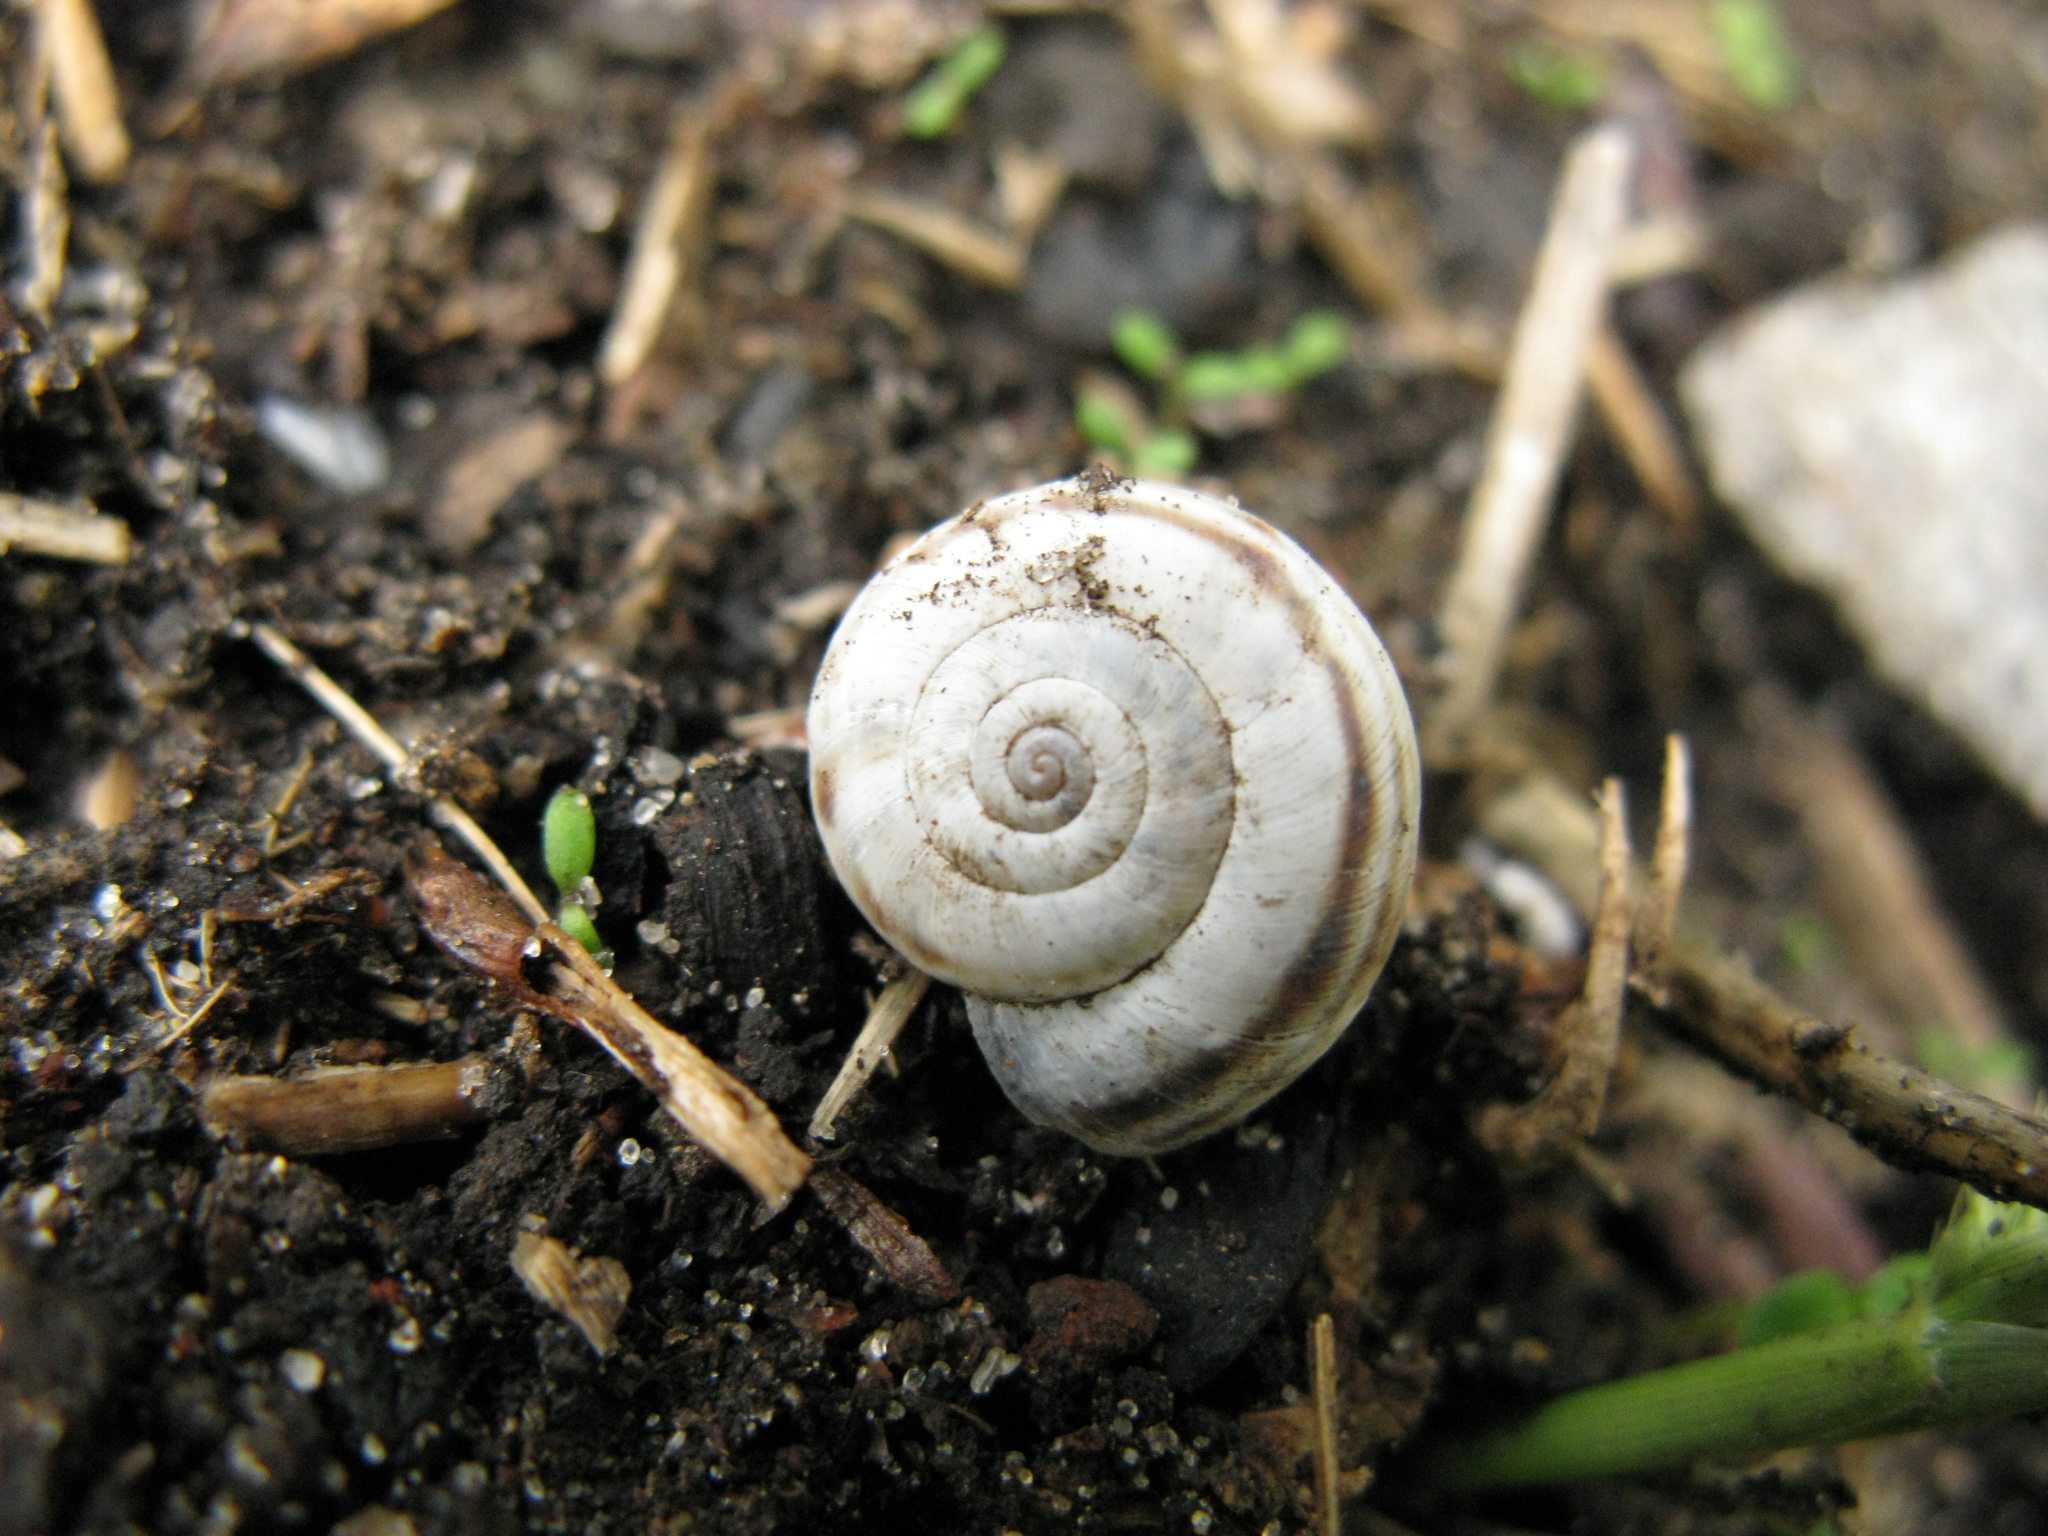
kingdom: Animalia
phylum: Mollusca
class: Gastropoda
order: Stylommatophora
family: Geomitridae
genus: Xerolenta
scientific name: Xerolenta obvia
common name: White heath snail
